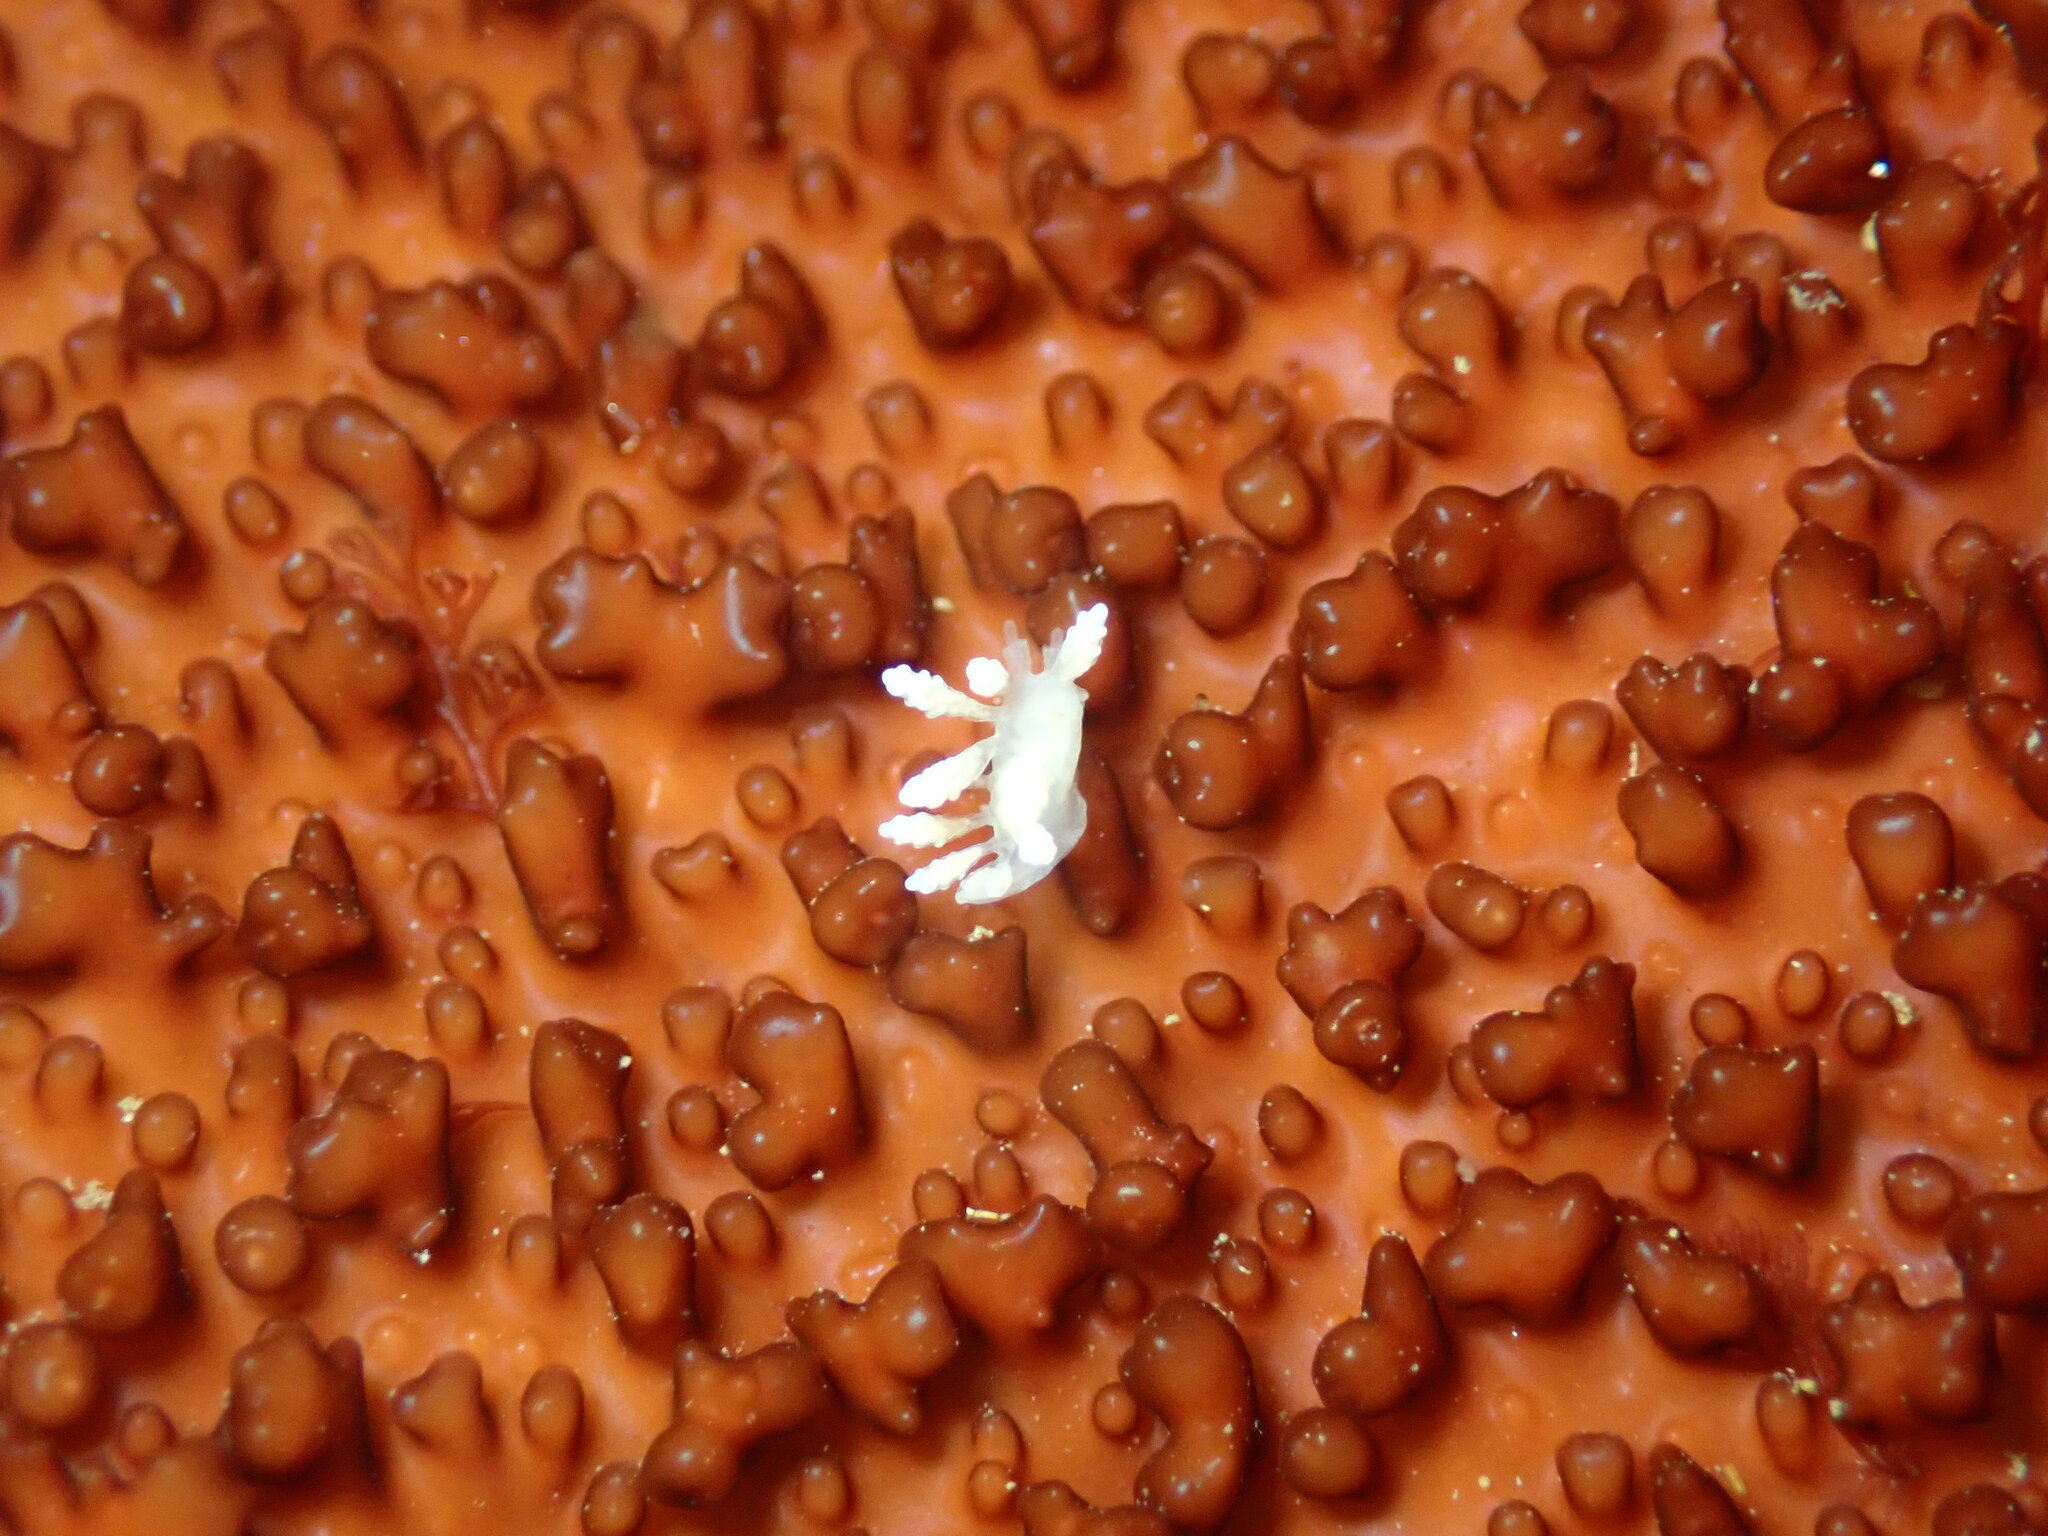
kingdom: Animalia
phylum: Mollusca
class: Gastropoda
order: Nudibranchia
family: Dotidae
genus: Doto
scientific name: Doto amyra
